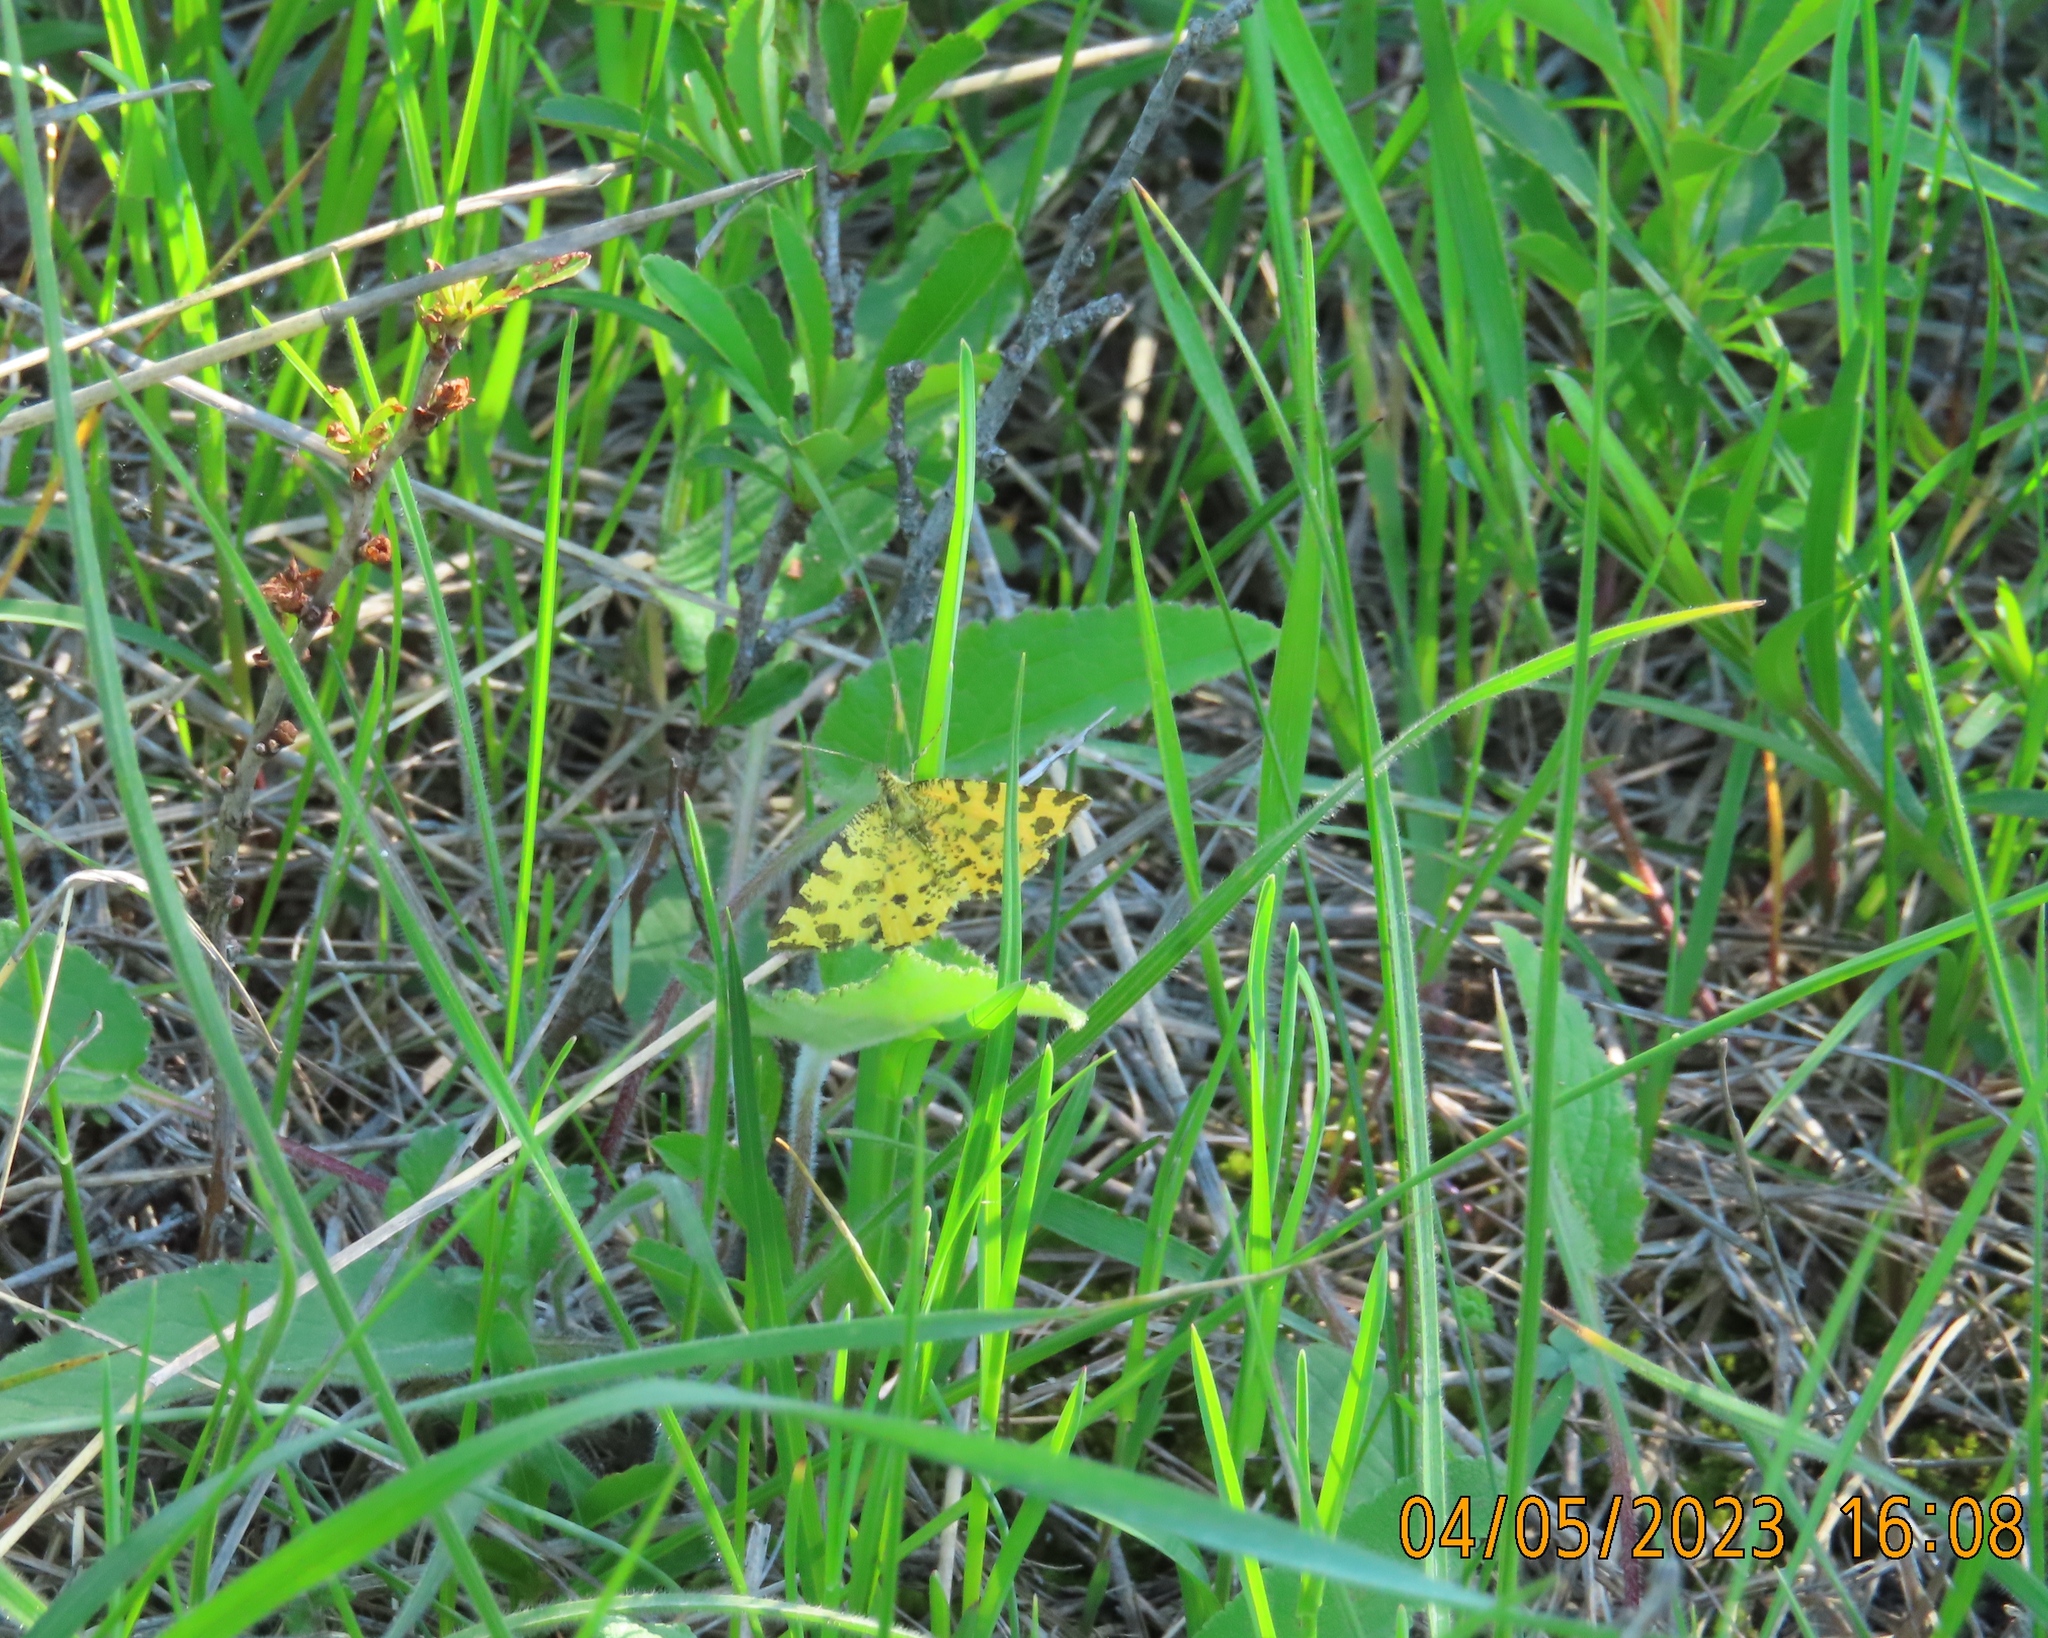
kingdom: Animalia
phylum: Arthropoda
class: Insecta
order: Lepidoptera
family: Geometridae
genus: Pseudopanthera
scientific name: Pseudopanthera macularia
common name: Speckled yellow
